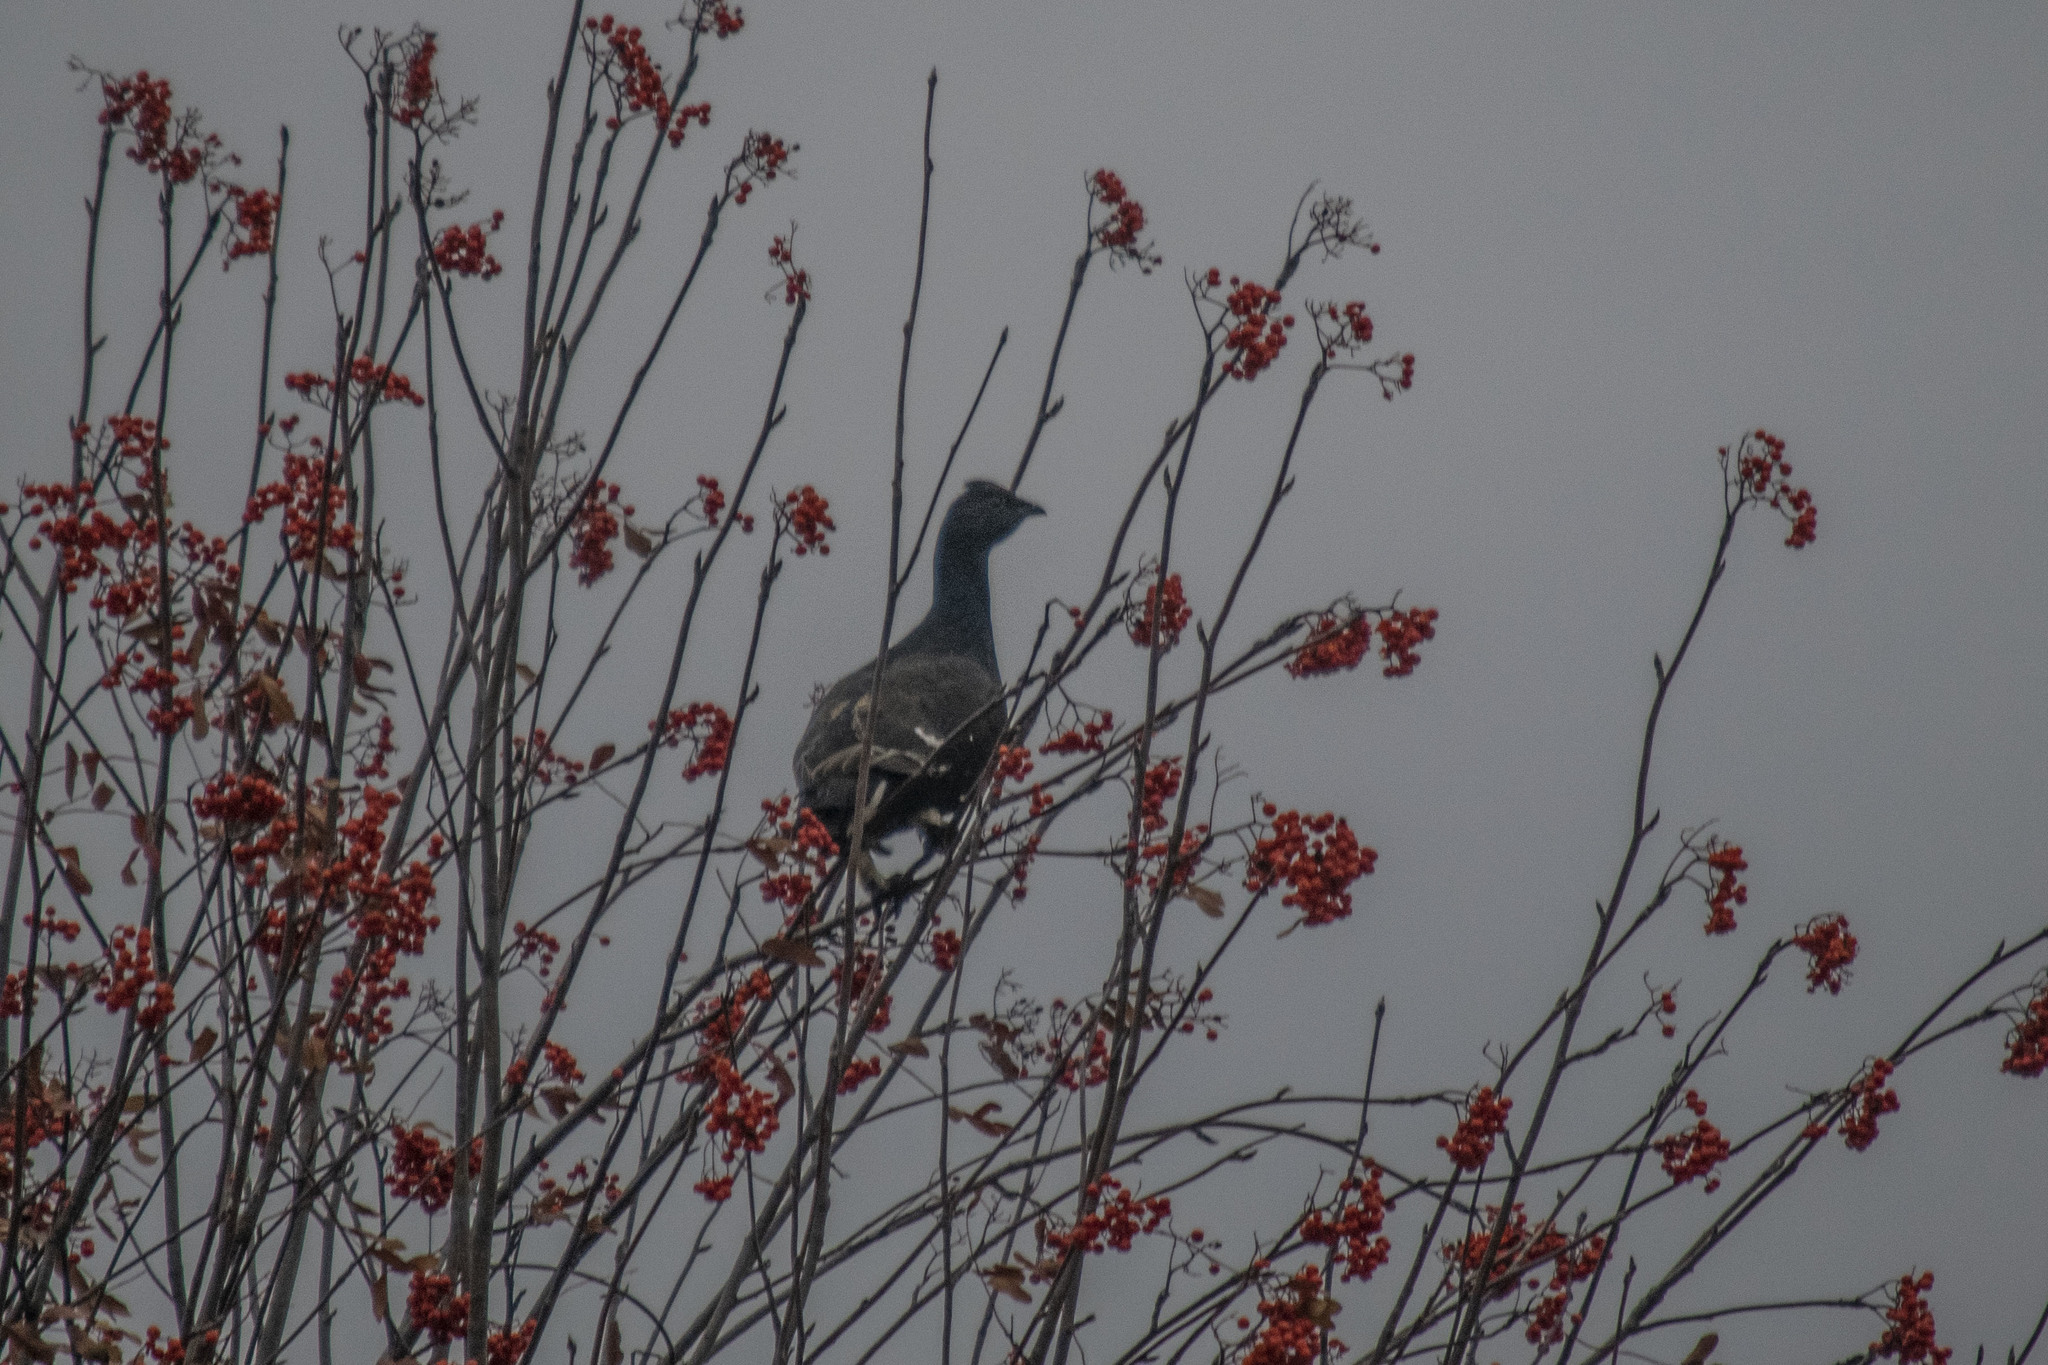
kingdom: Animalia
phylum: Chordata
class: Aves
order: Galliformes
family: Phasianidae
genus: Lyrurus
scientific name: Lyrurus tetrix
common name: Black grouse
